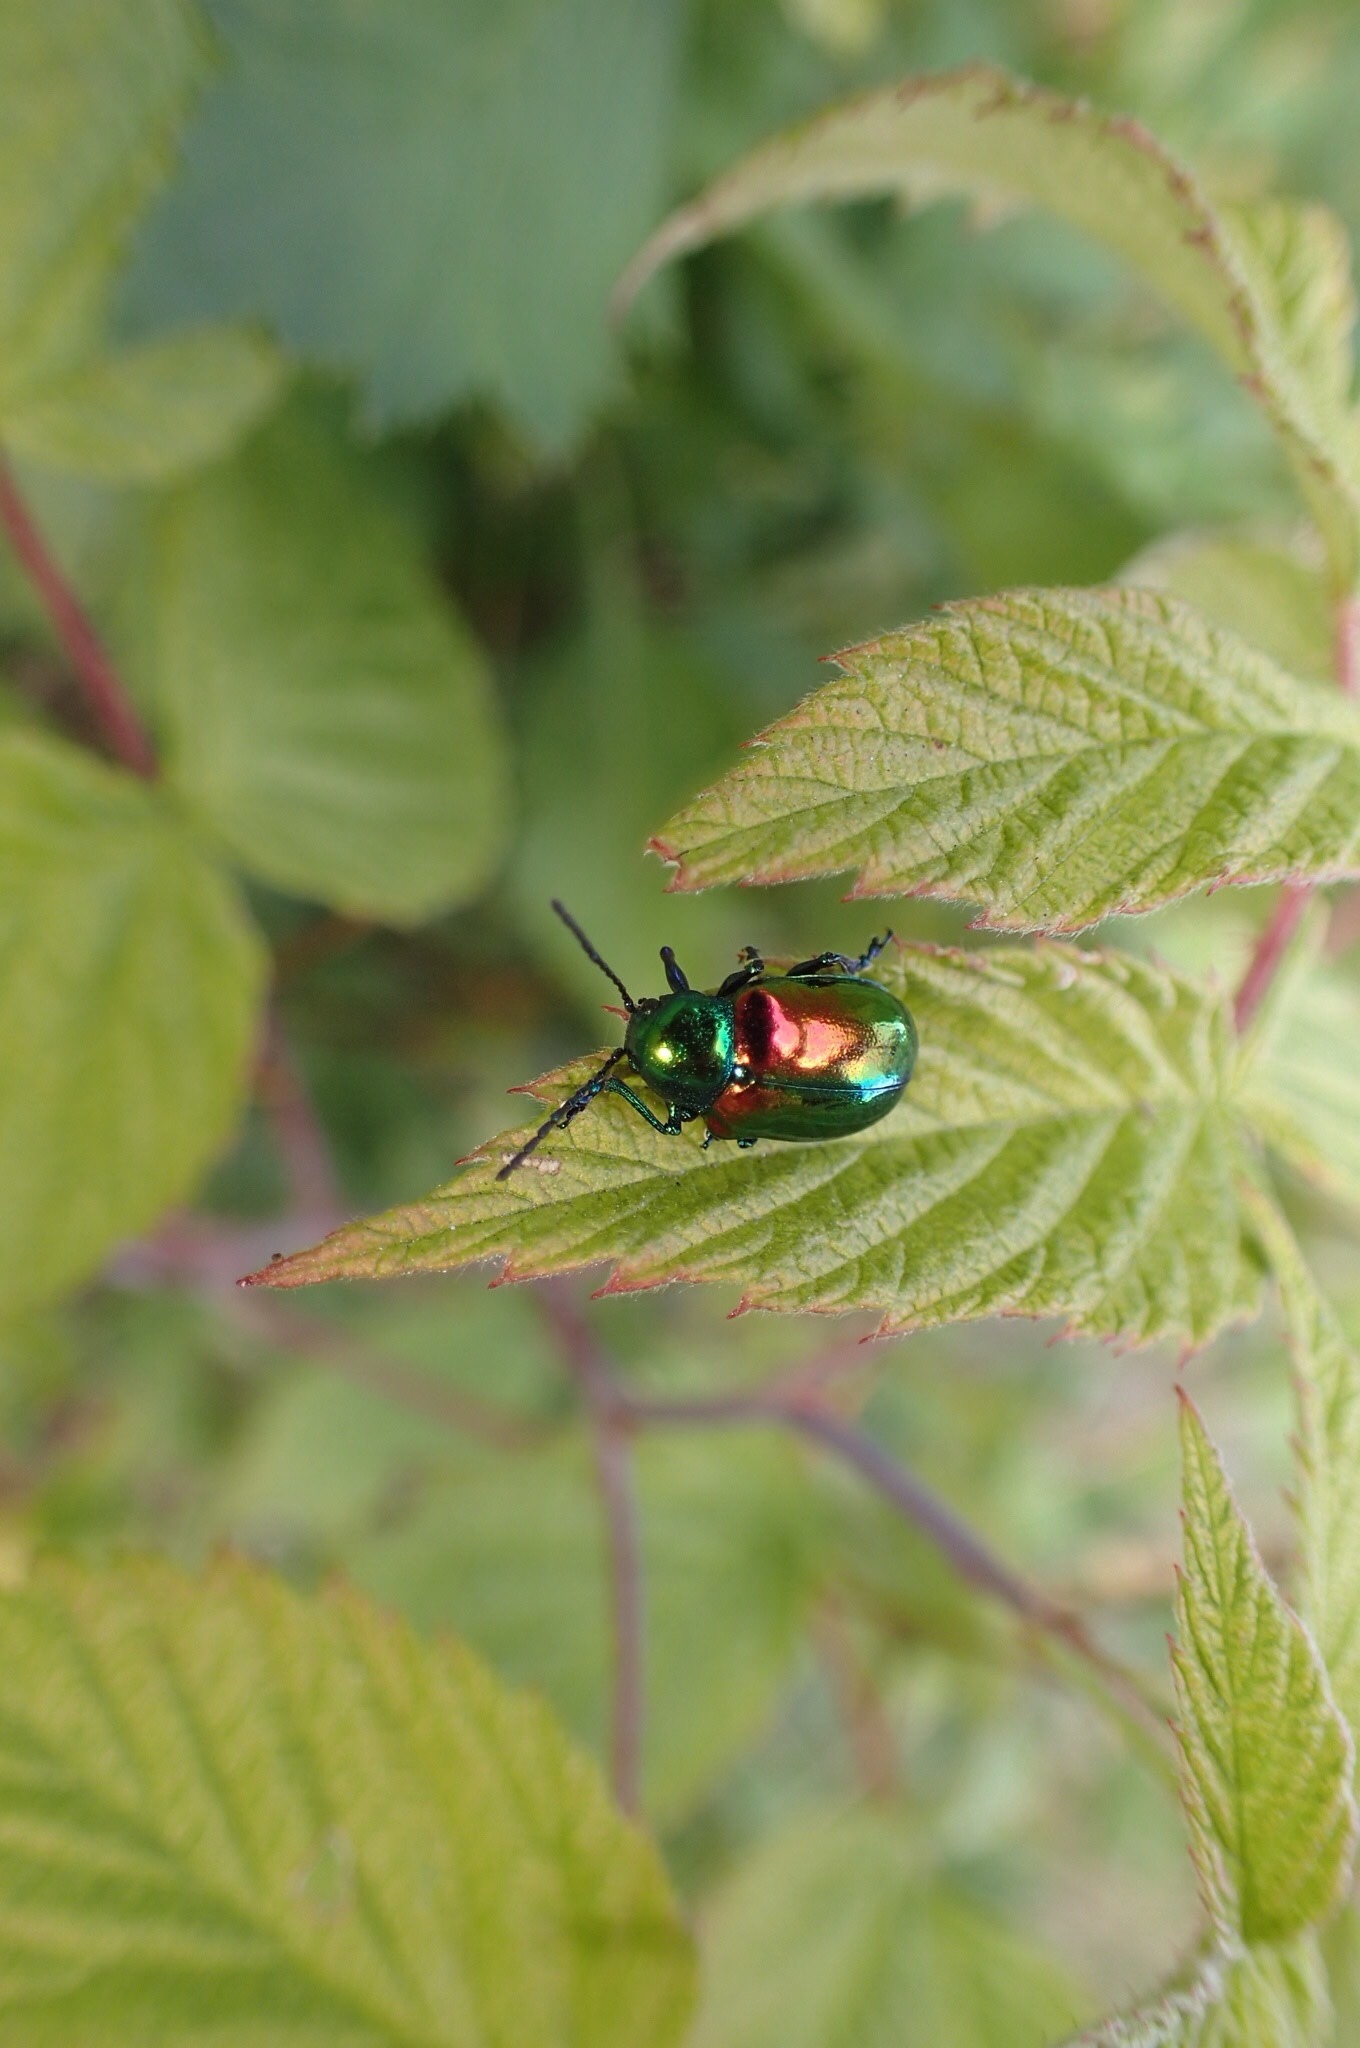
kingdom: Animalia
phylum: Arthropoda
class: Insecta
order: Coleoptera
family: Chrysomelidae
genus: Chrysochus
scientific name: Chrysochus auratus
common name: Dogbane leaf beetle
